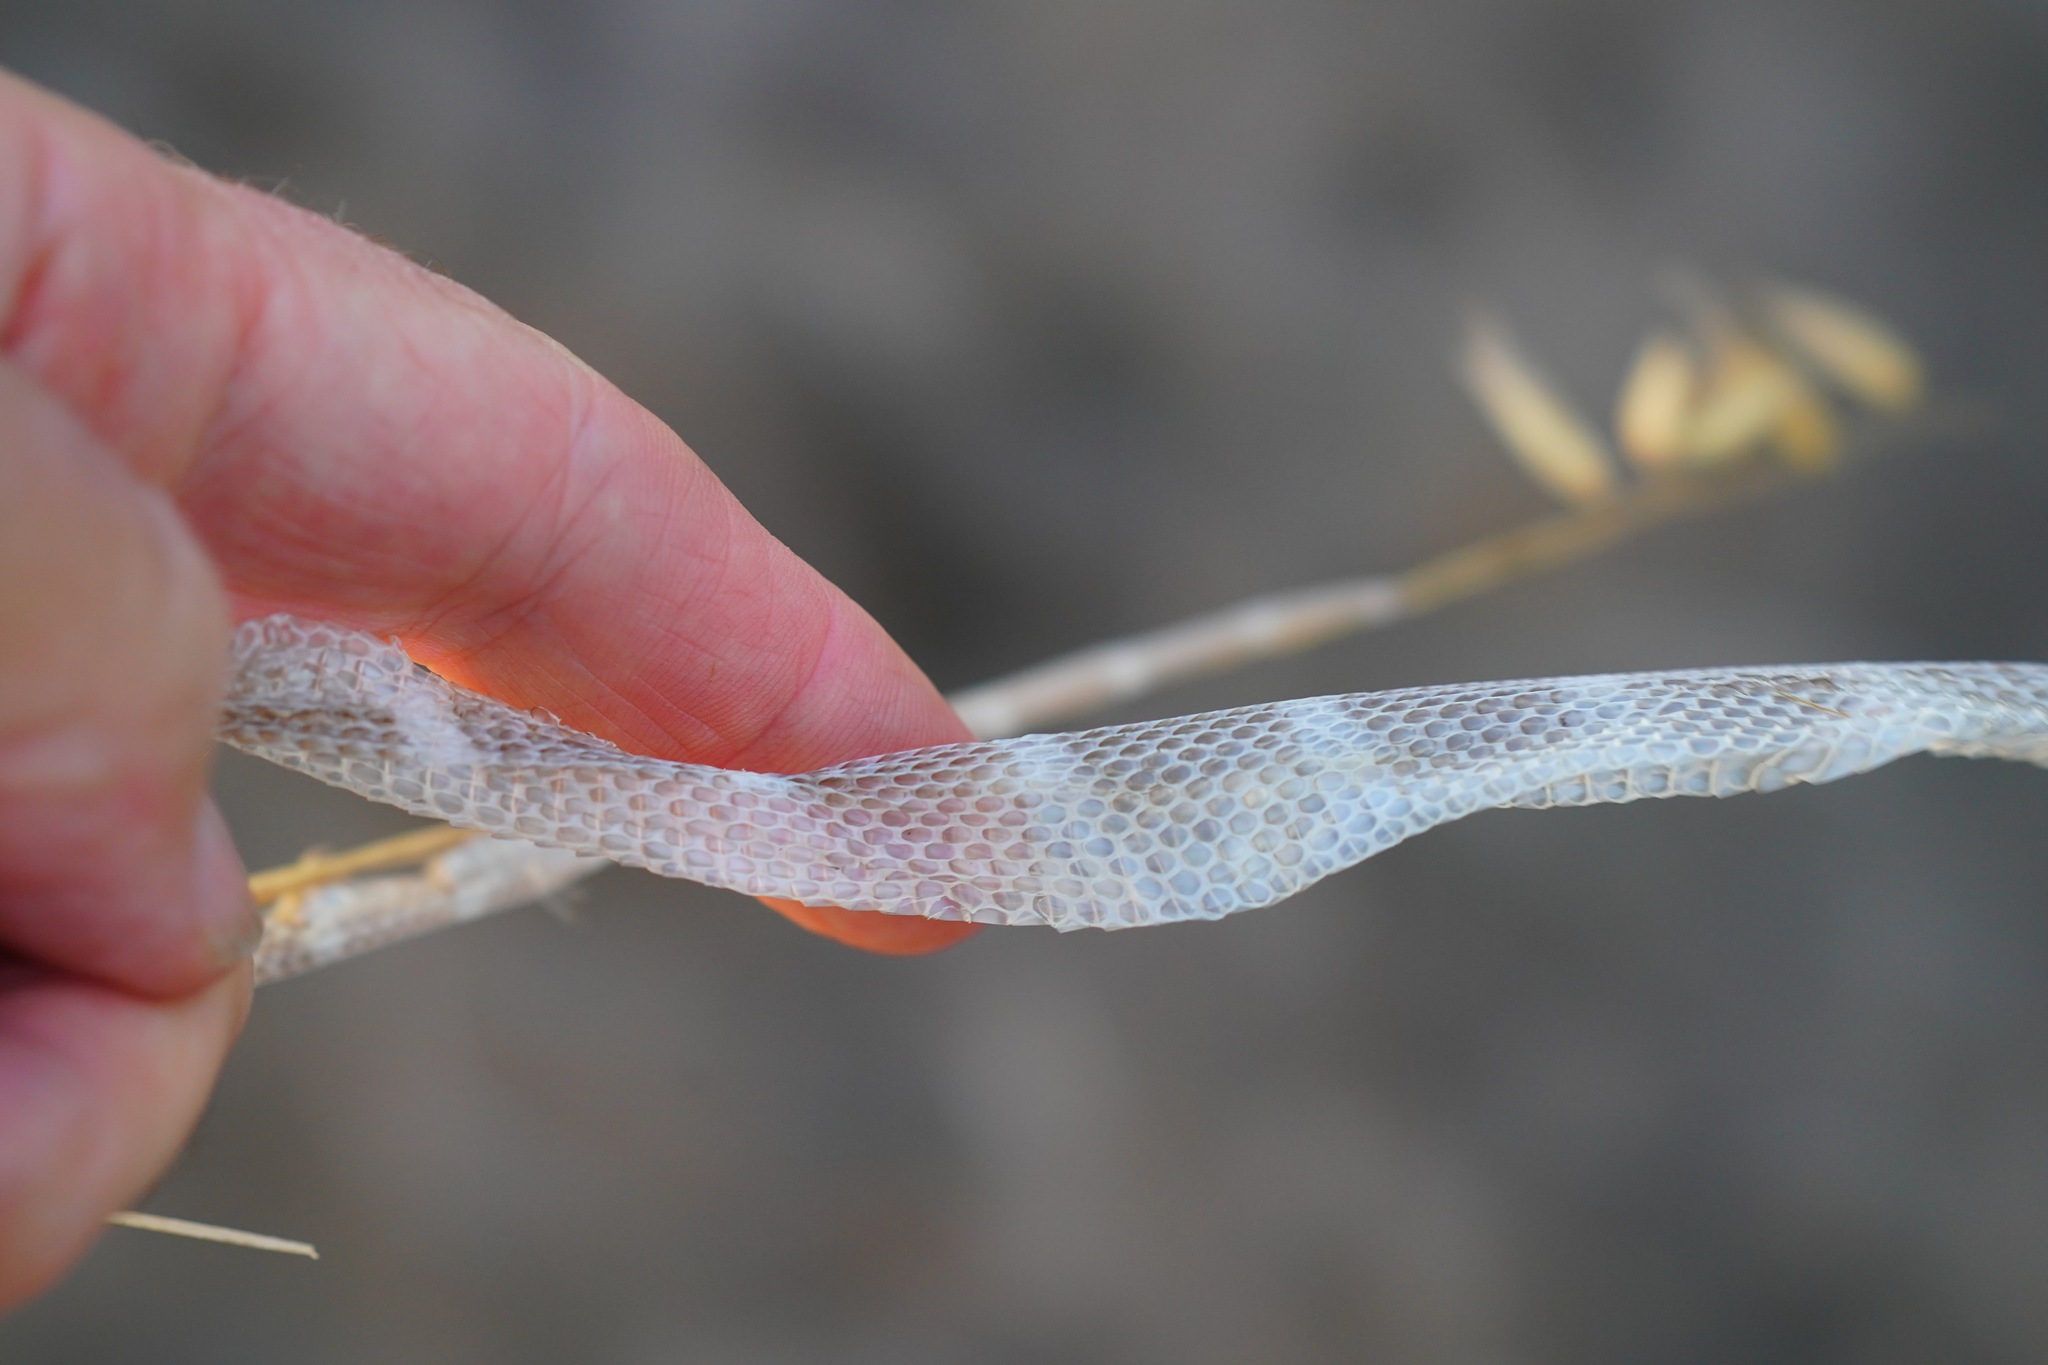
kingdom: Animalia
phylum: Chordata
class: Squamata
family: Colubridae
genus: Lampropeltis
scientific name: Lampropeltis californiae
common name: California kingsnake
